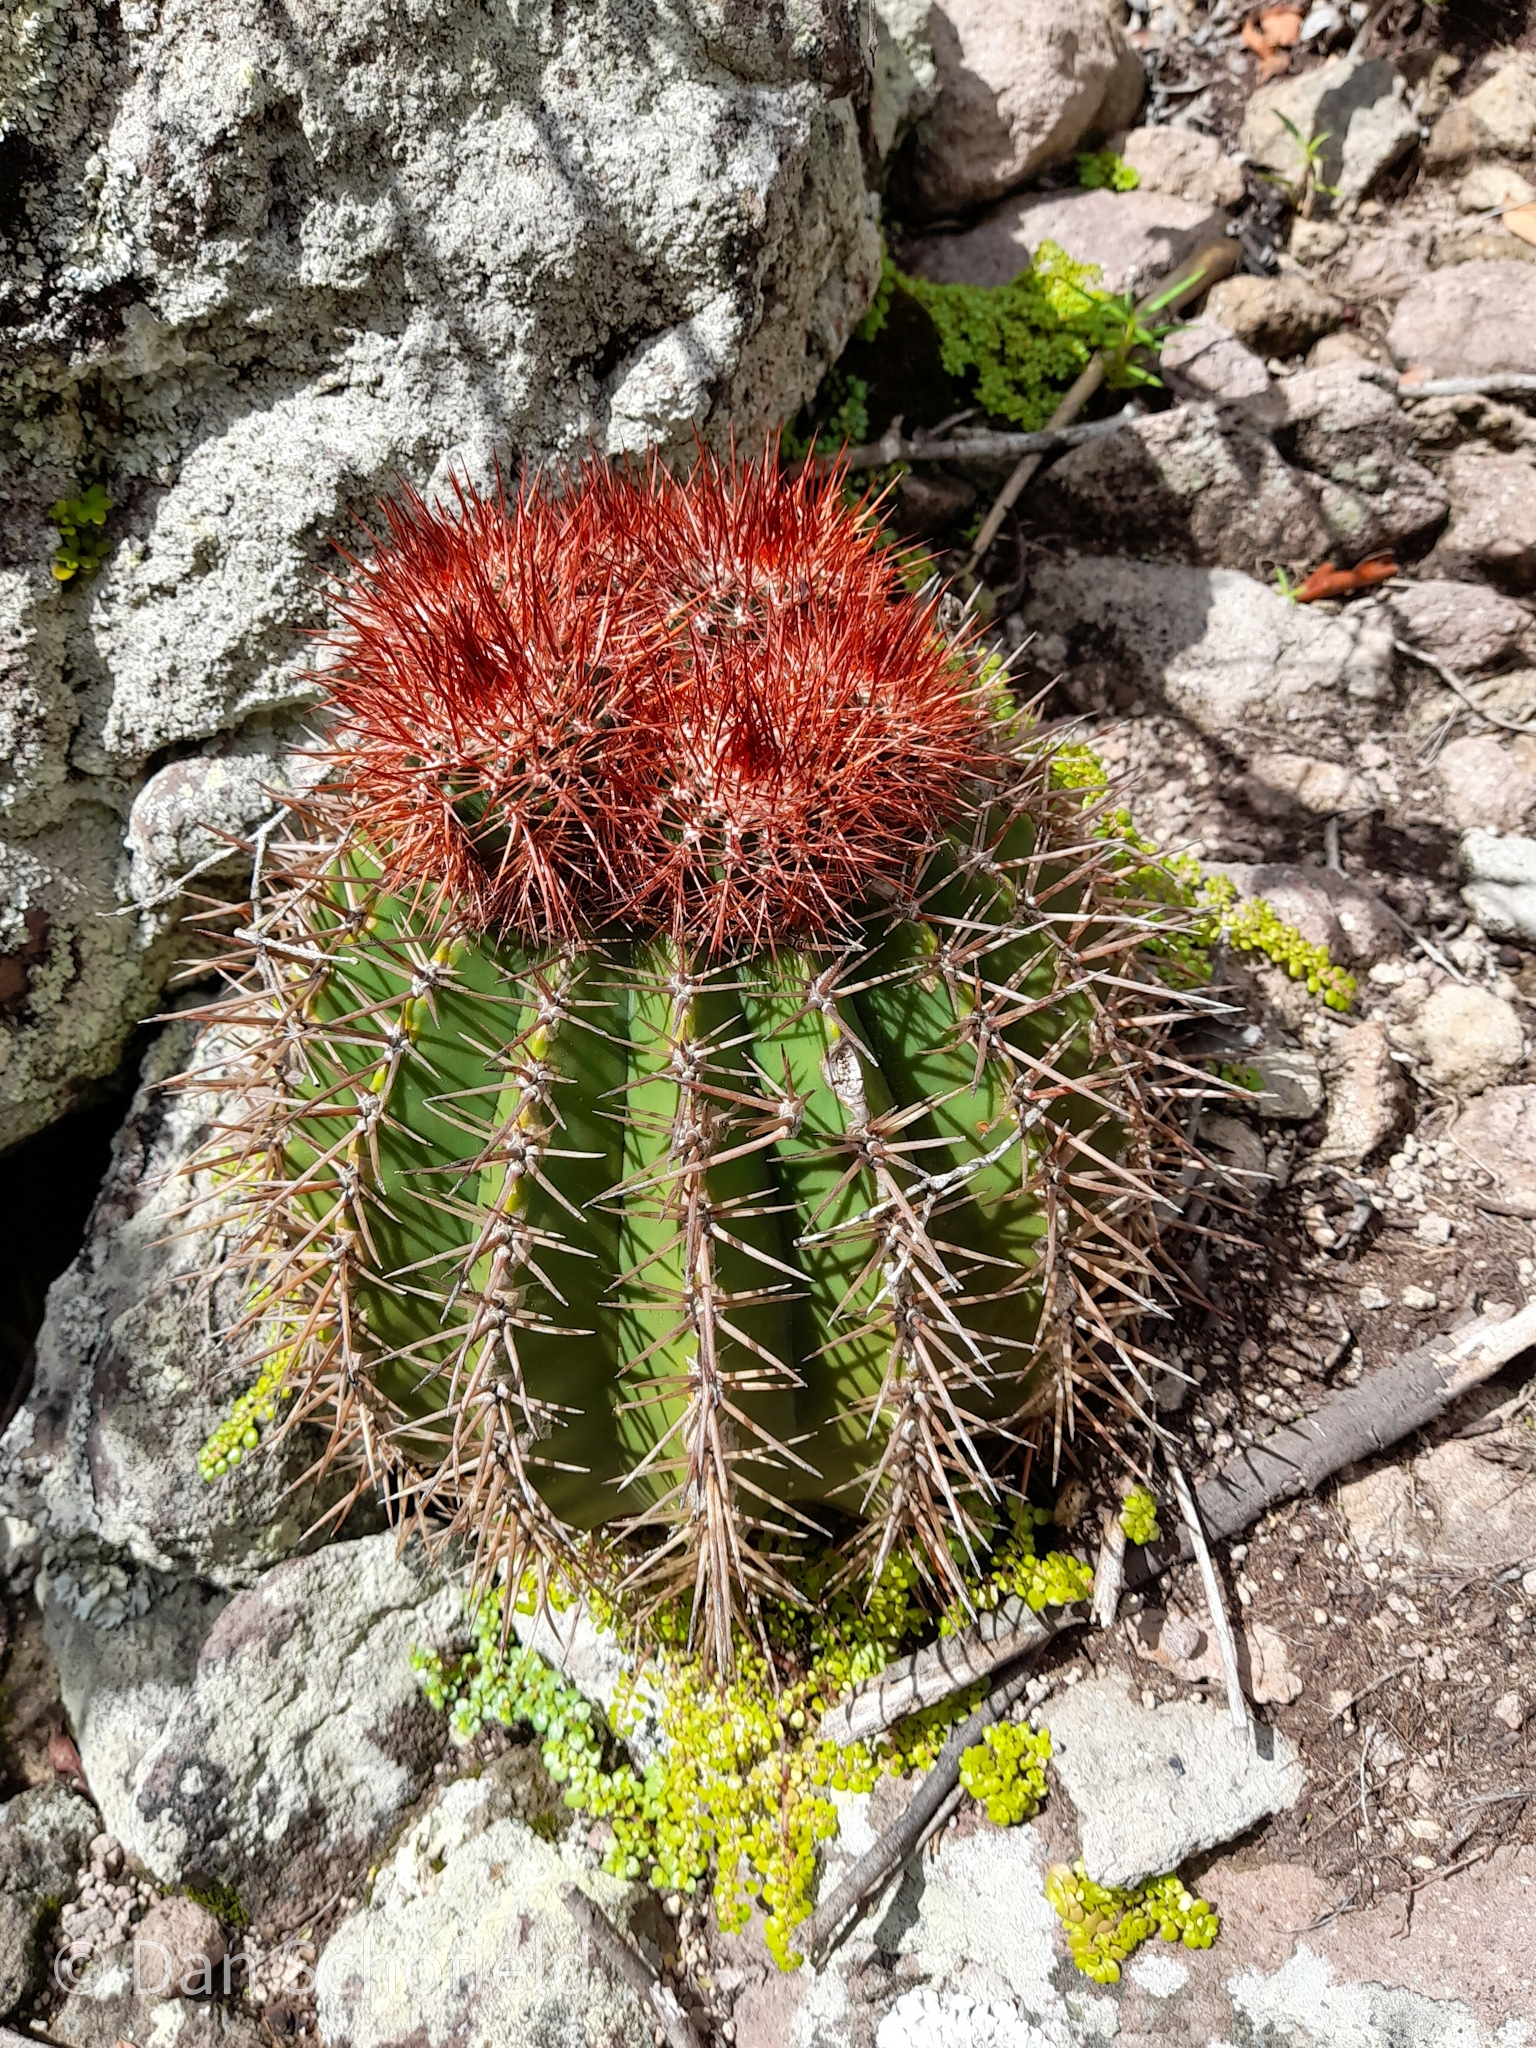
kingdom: Plantae
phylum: Tracheophyta
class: Magnoliopsida
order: Caryophyllales
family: Cactaceae
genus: Melocactus
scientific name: Melocactus intortus
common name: Barrel cactus
